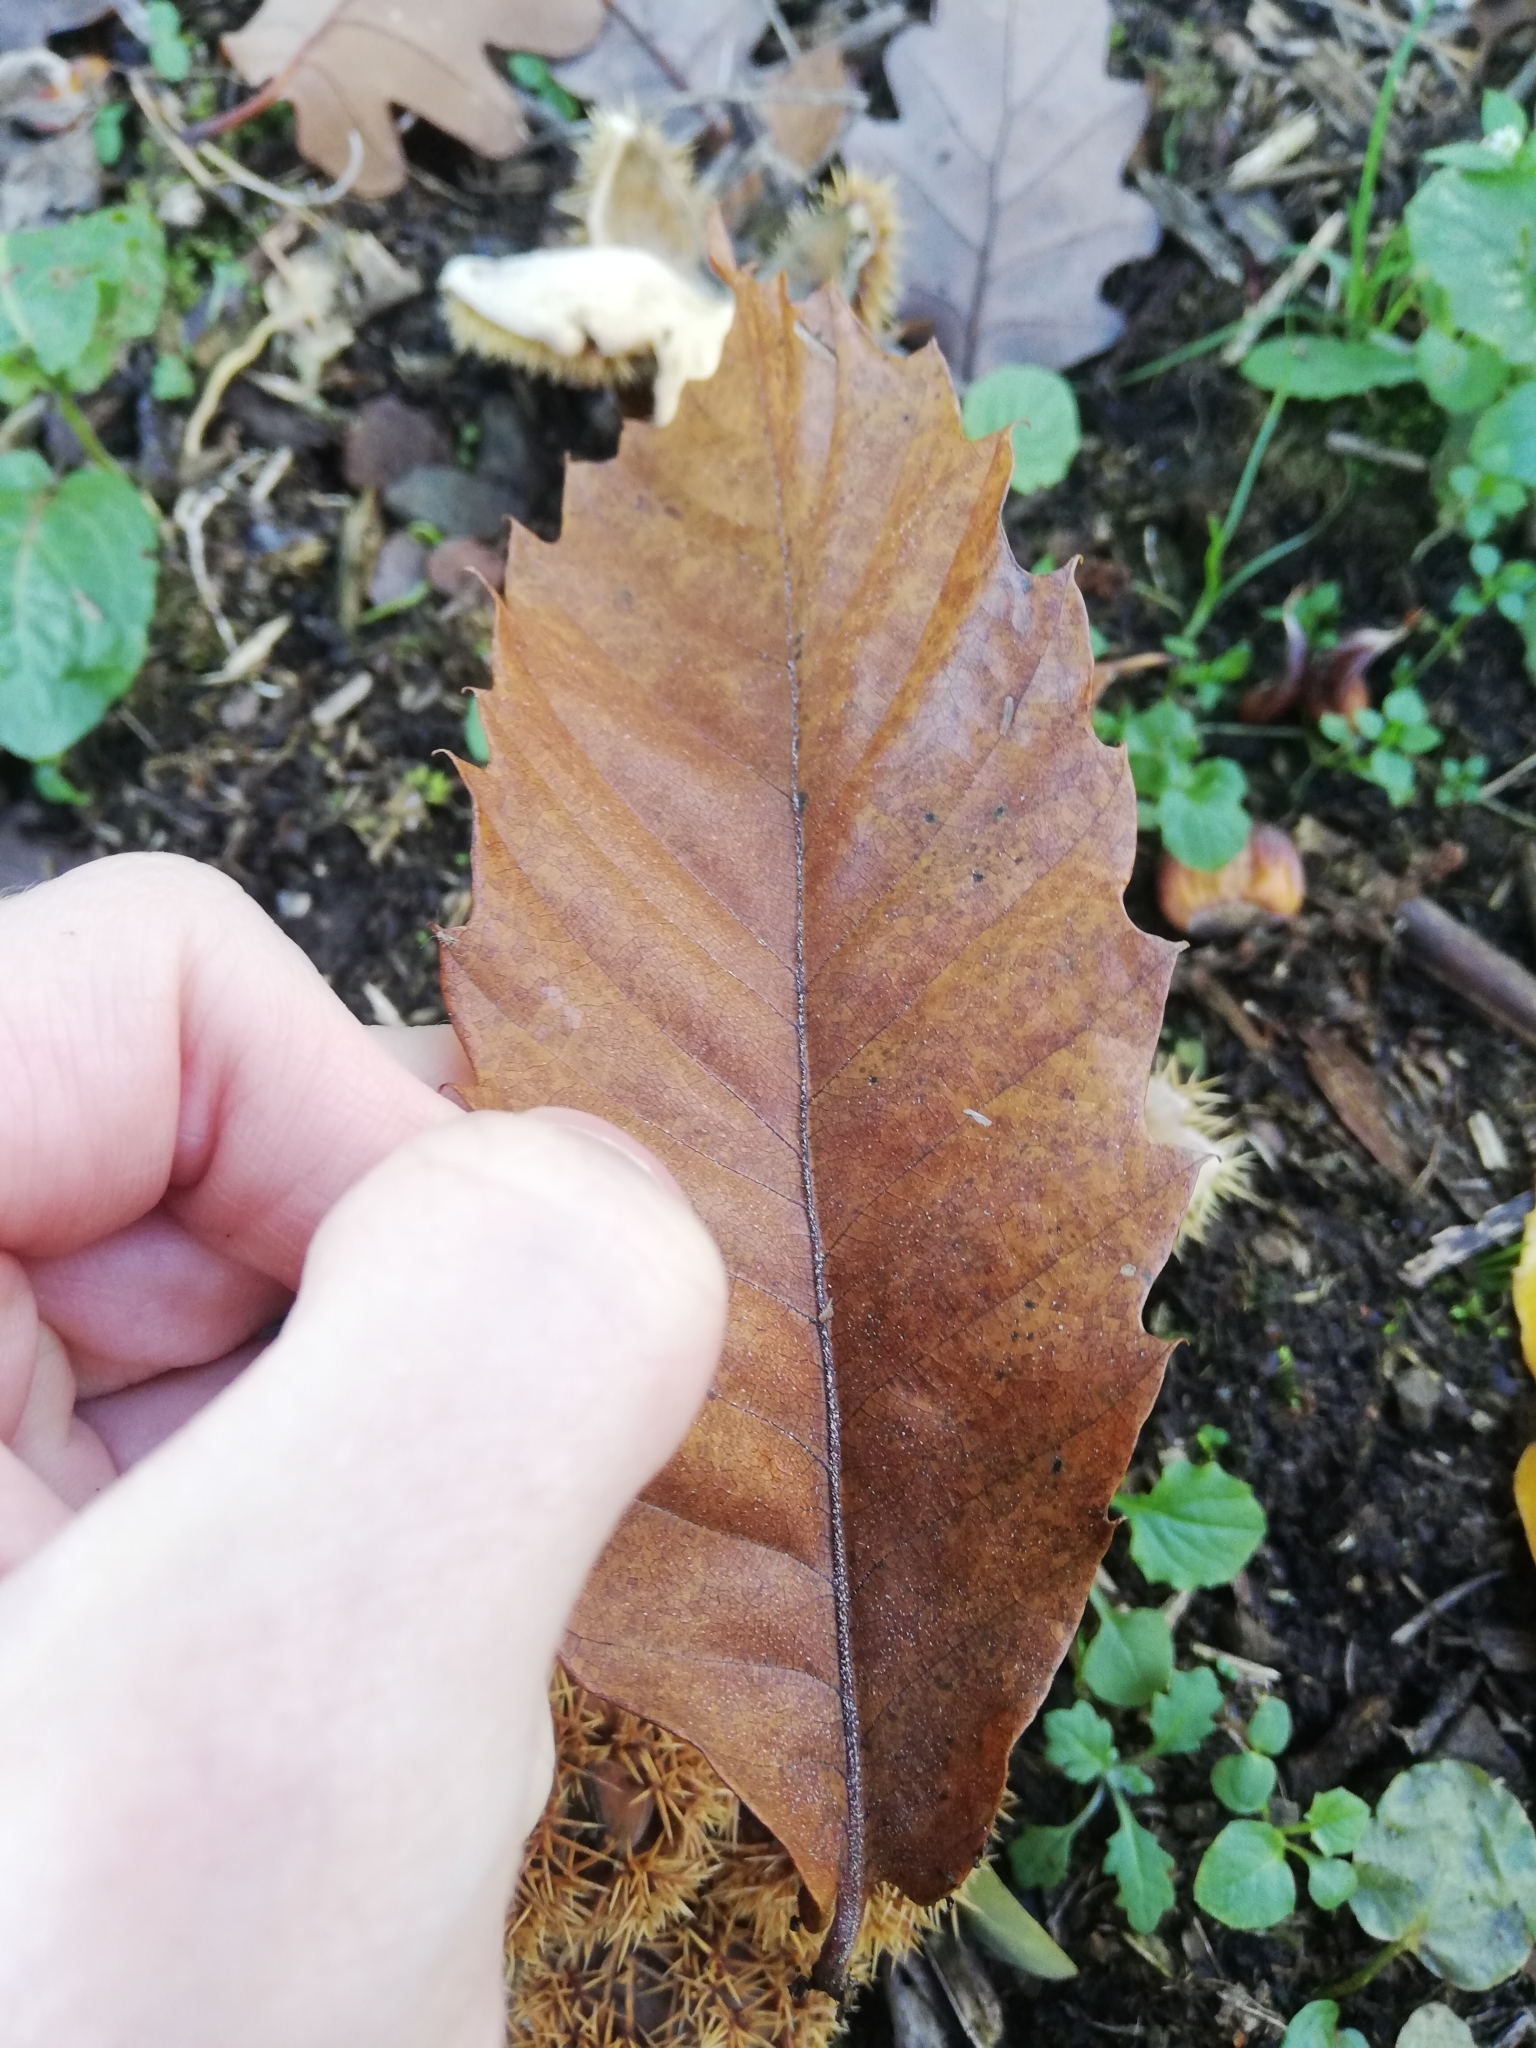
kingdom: Plantae
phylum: Tracheophyta
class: Magnoliopsida
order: Fagales
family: Fagaceae
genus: Castanea
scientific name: Castanea sativa
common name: Sweet chestnut
